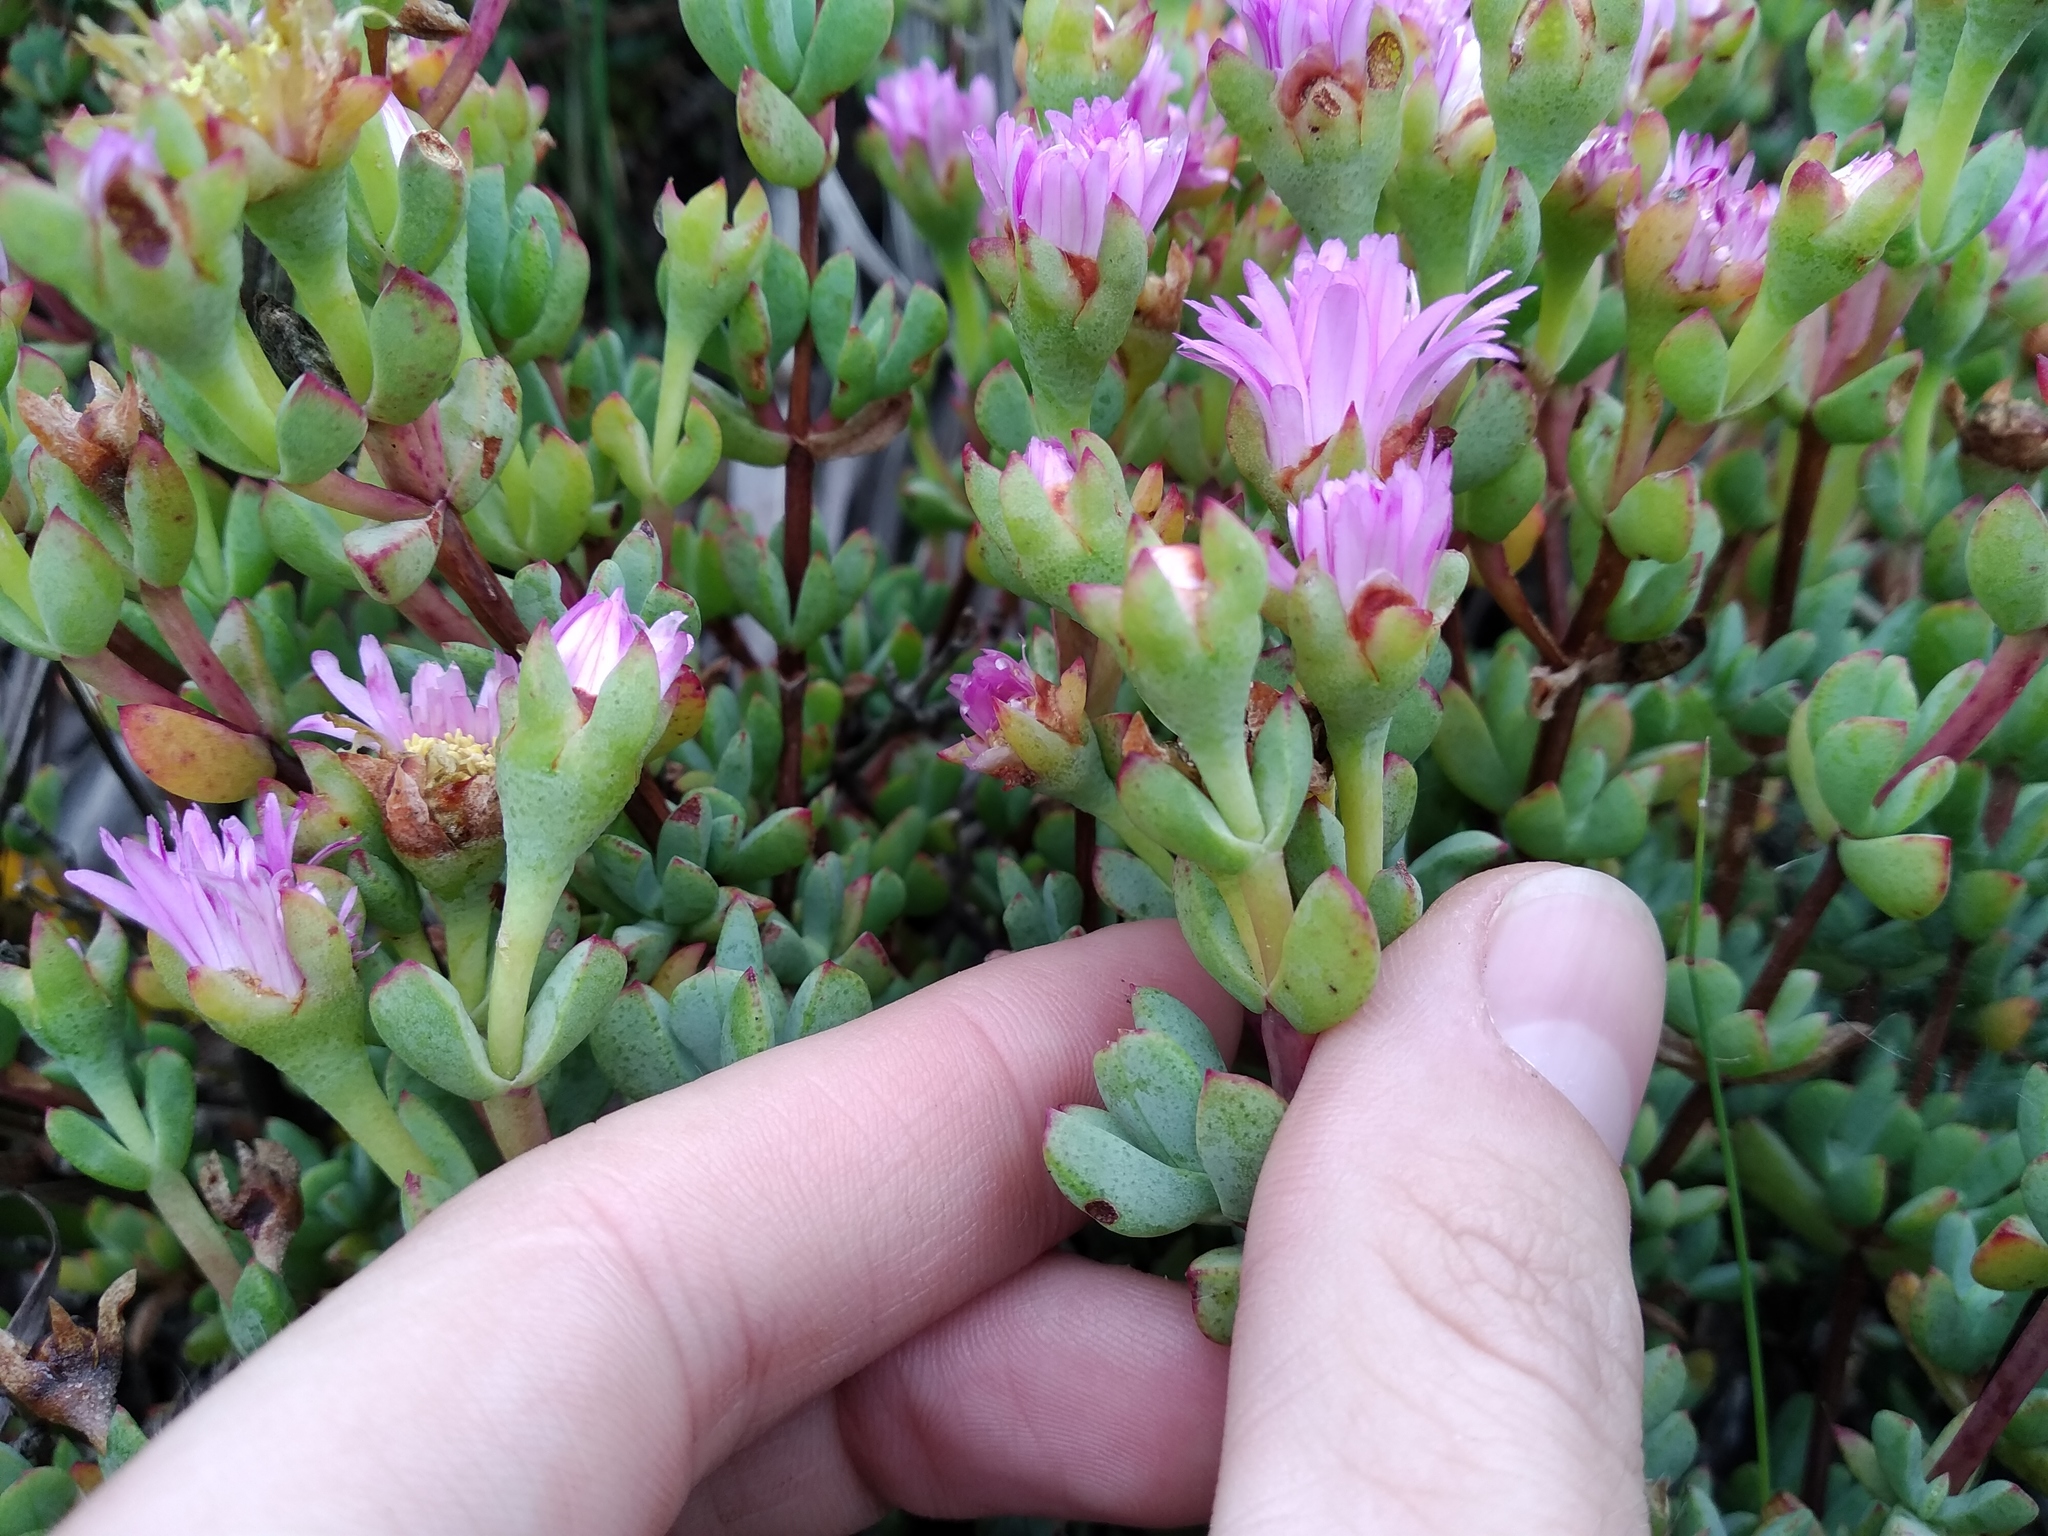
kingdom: Plantae
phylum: Tracheophyta
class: Magnoliopsida
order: Caryophyllales
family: Aizoaceae
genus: Oscularia
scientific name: Oscularia falciformis
